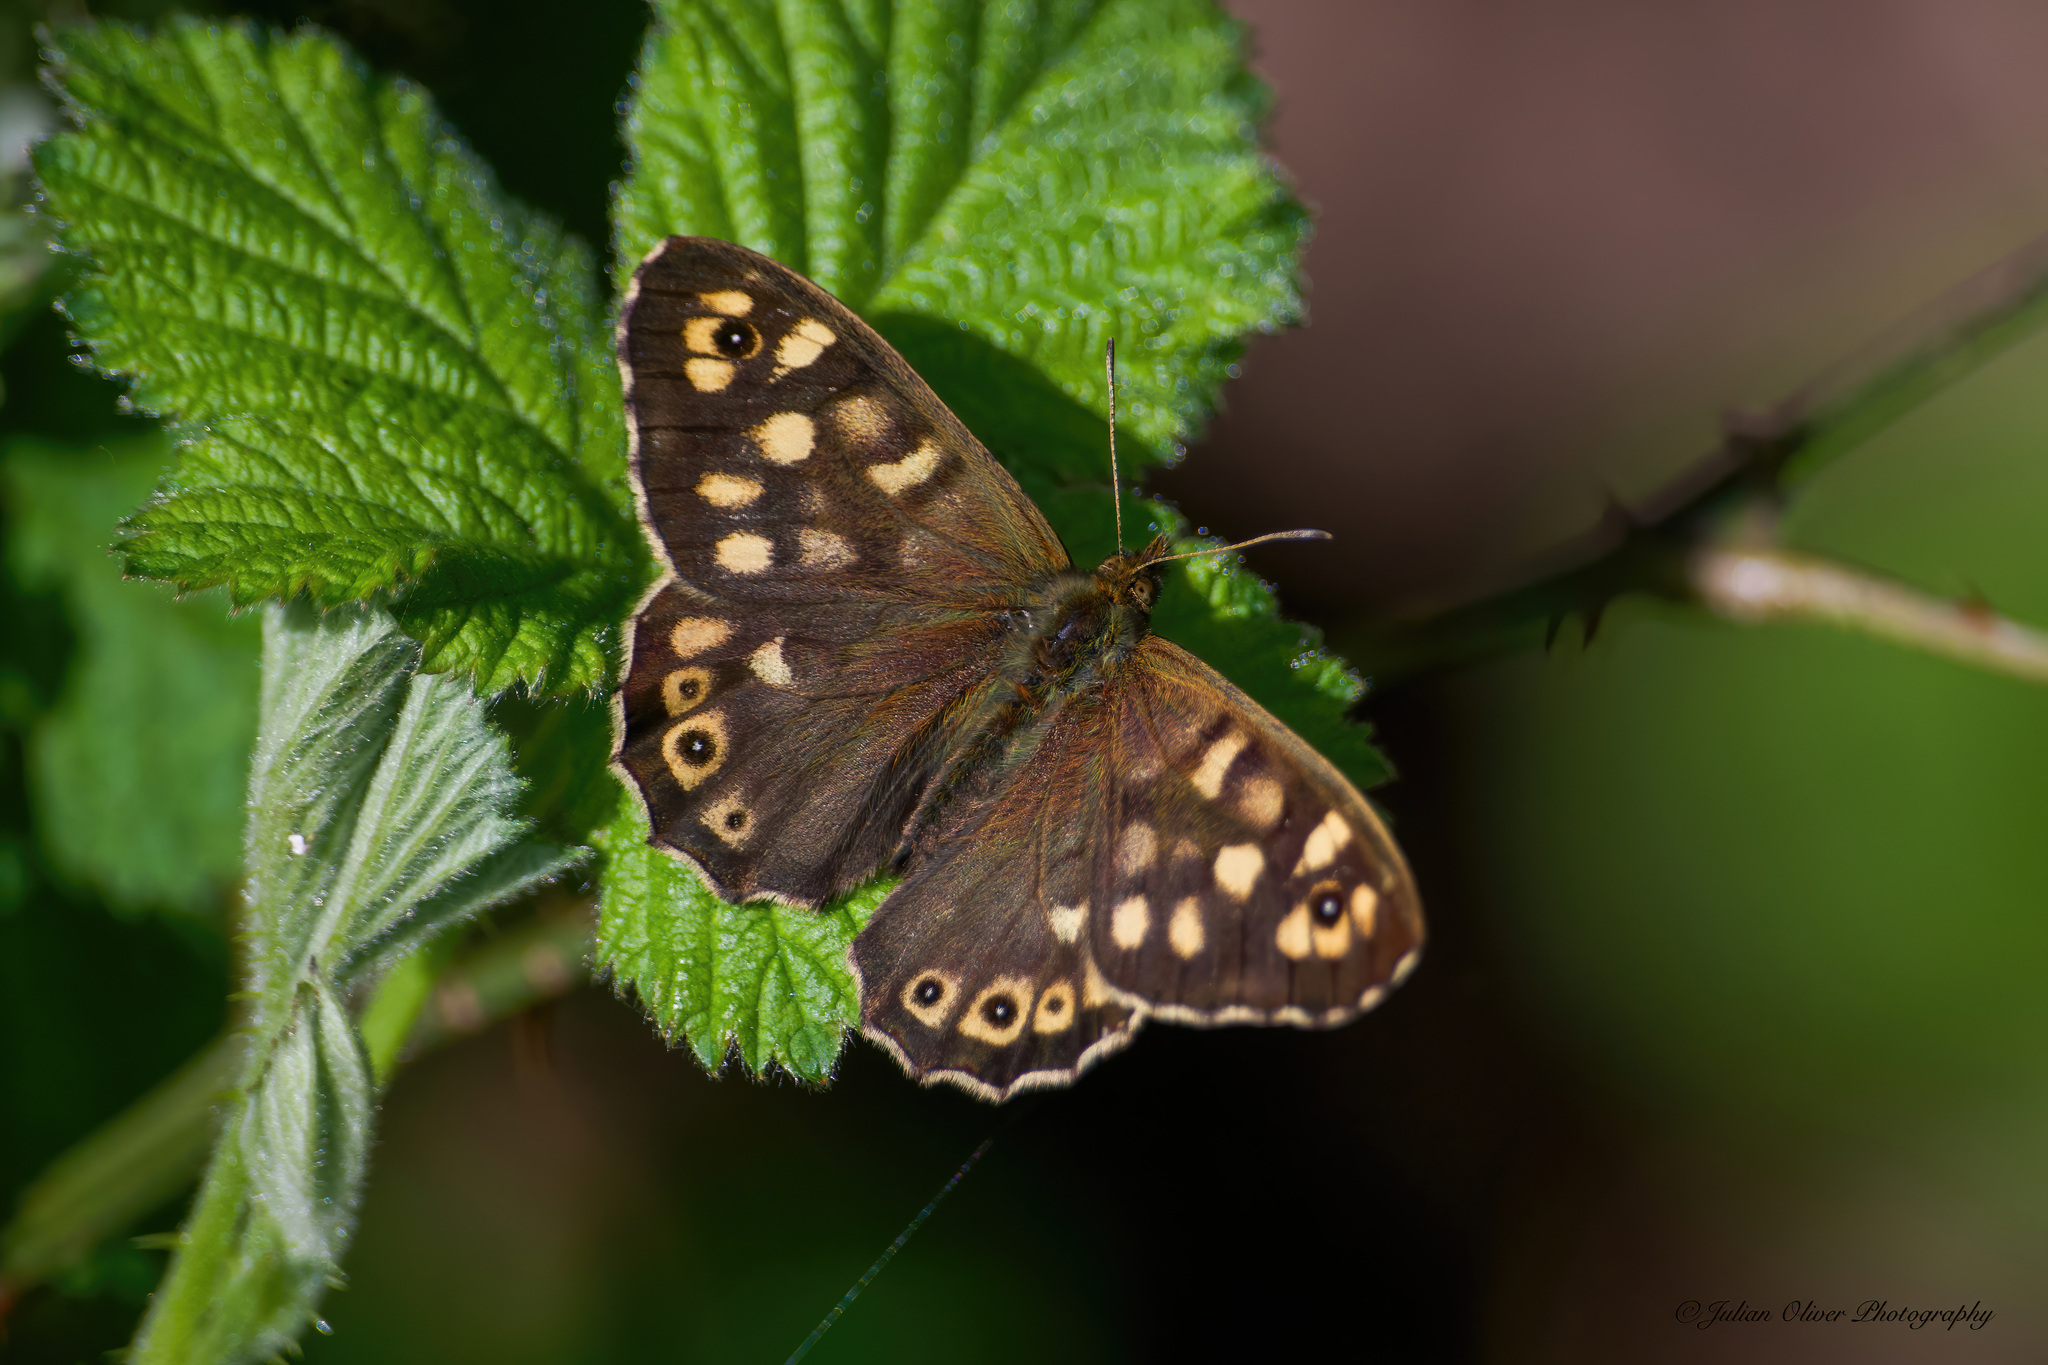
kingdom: Animalia
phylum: Arthropoda
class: Insecta
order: Lepidoptera
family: Nymphalidae
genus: Pararge
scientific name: Pararge aegeria
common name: Speckled wood
